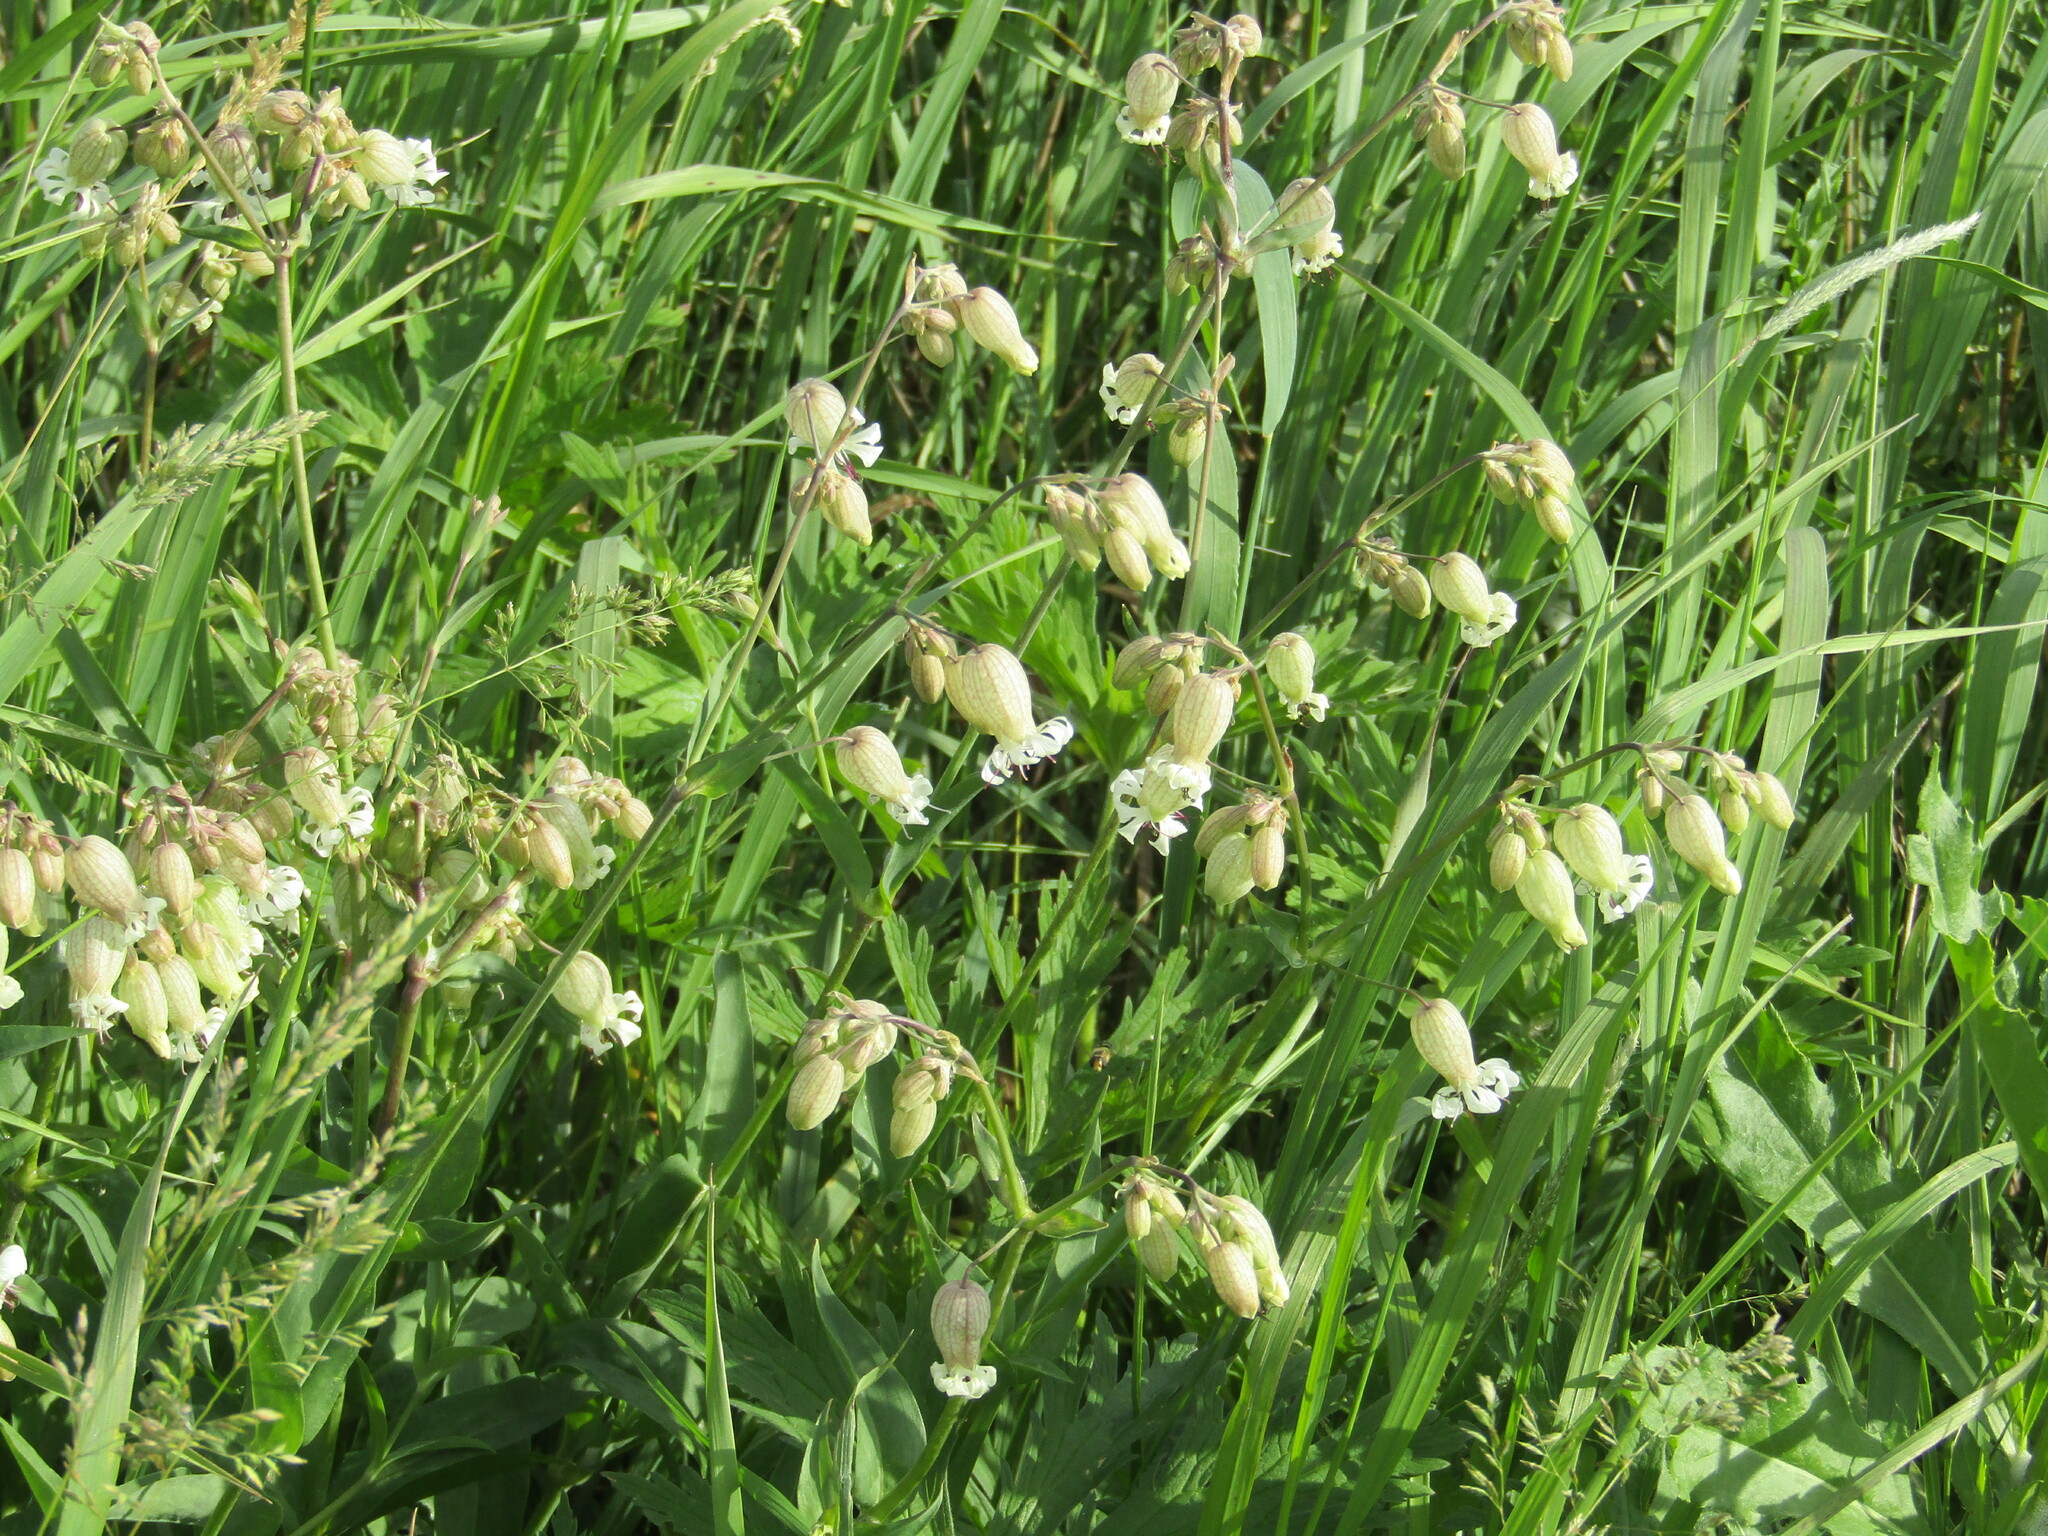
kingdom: Plantae
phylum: Tracheophyta
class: Magnoliopsida
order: Caryophyllales
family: Caryophyllaceae
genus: Silene
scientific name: Silene vulgaris
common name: Bladder campion
